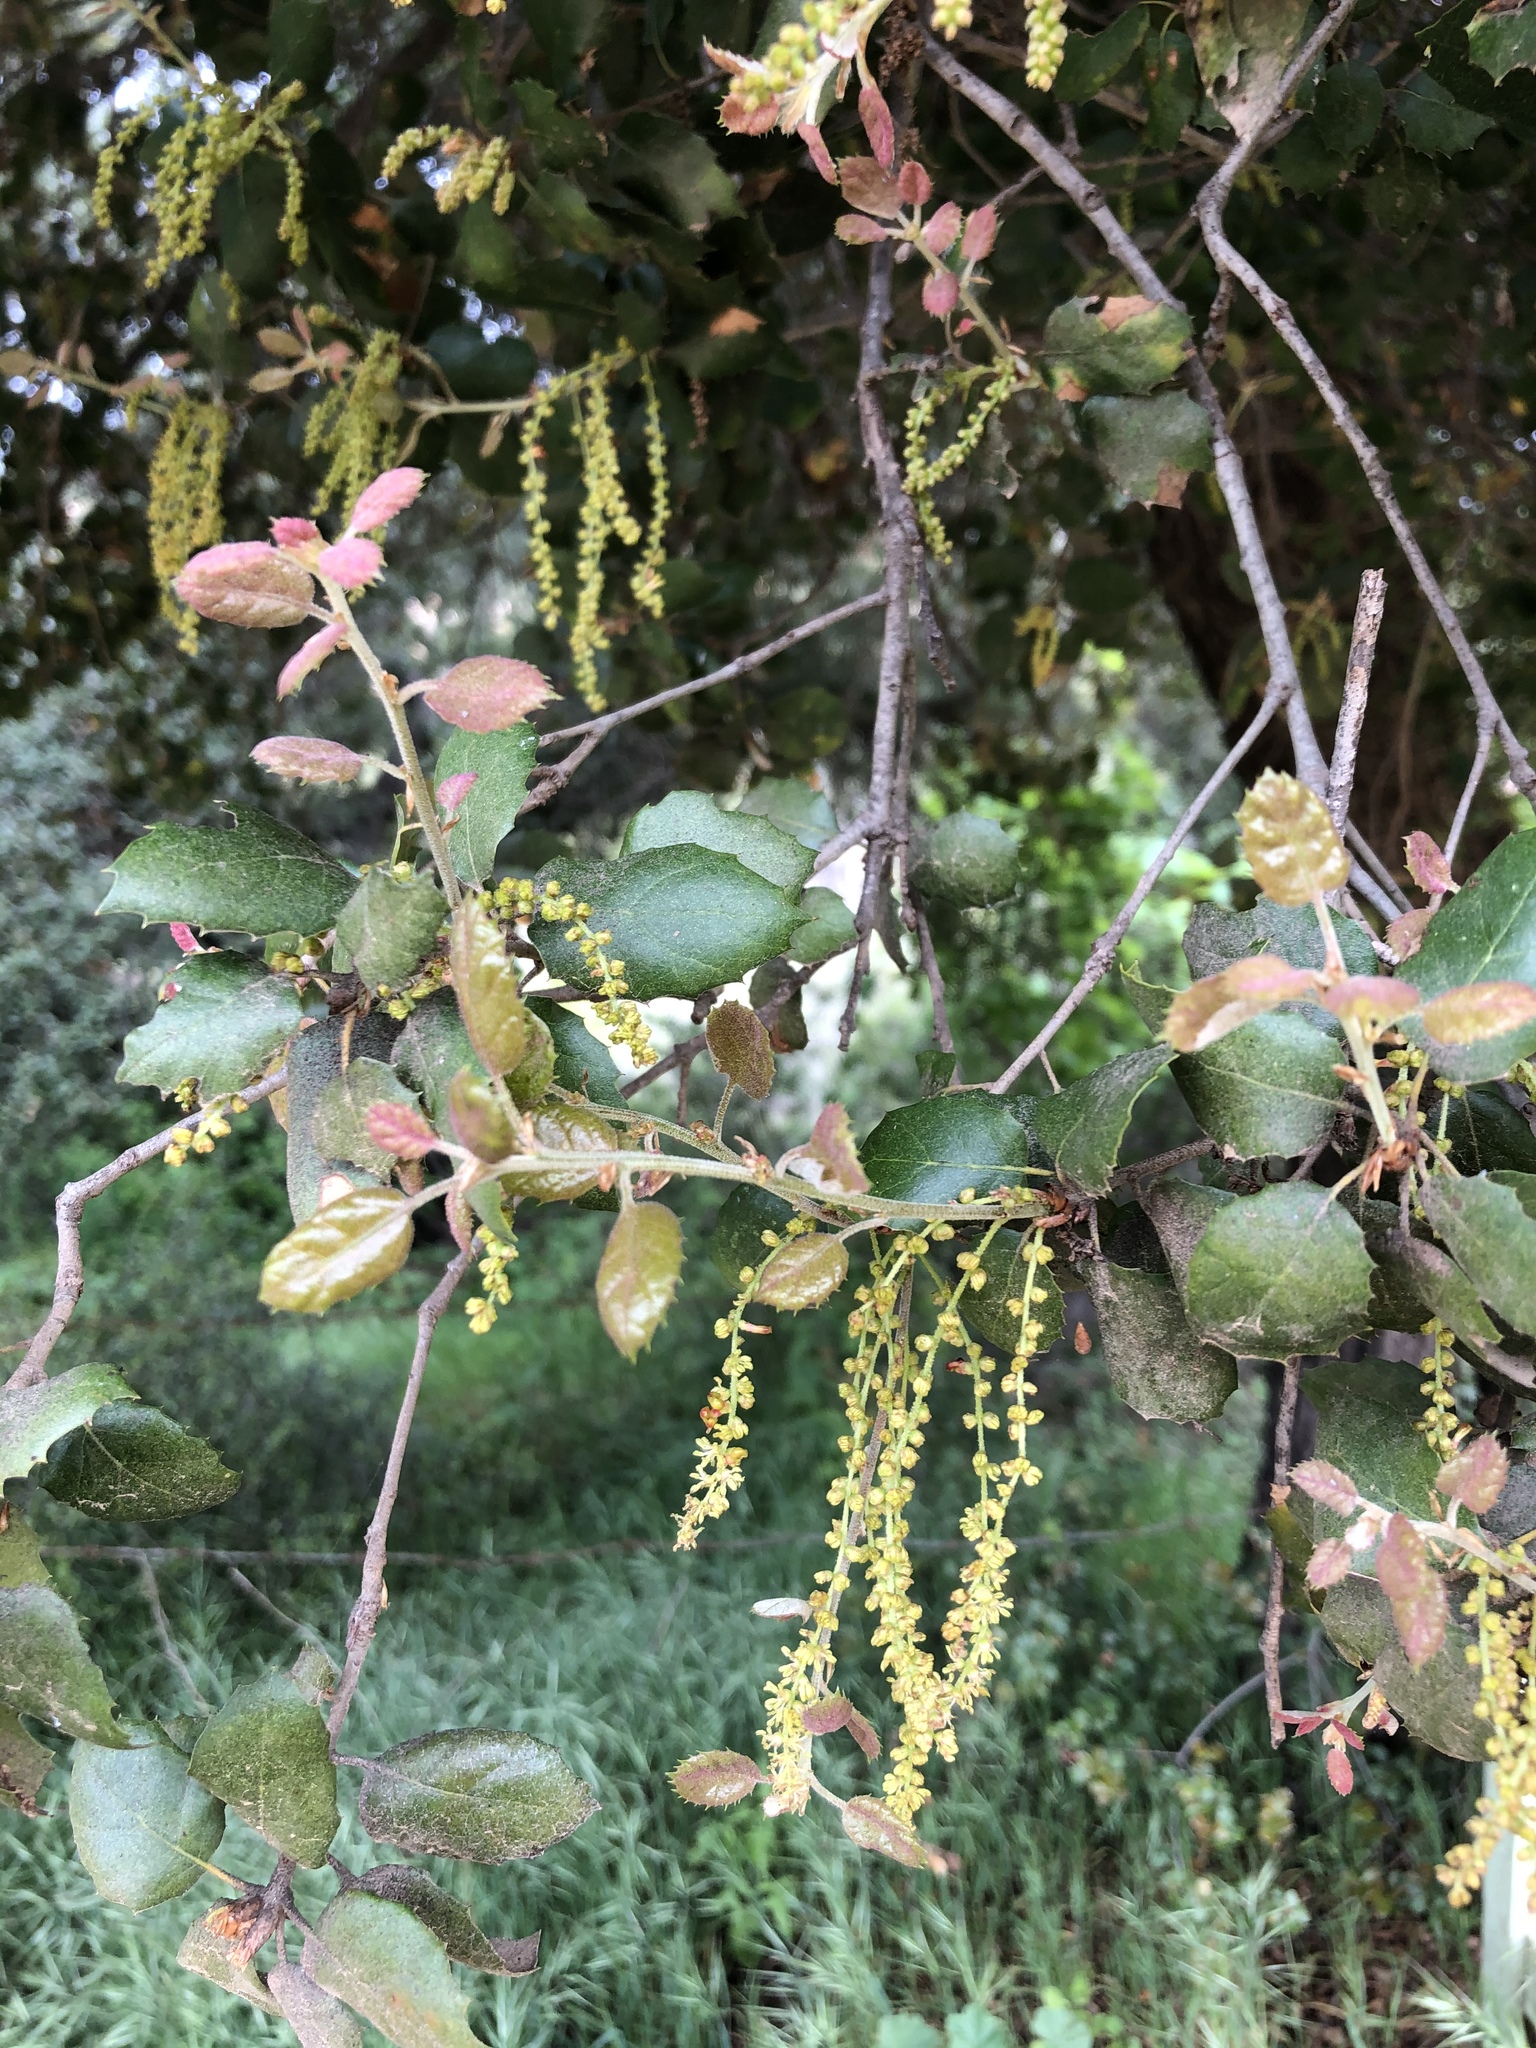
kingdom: Plantae
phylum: Tracheophyta
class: Magnoliopsida
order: Fagales
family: Fagaceae
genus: Quercus
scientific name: Quercus agrifolia
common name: California live oak
